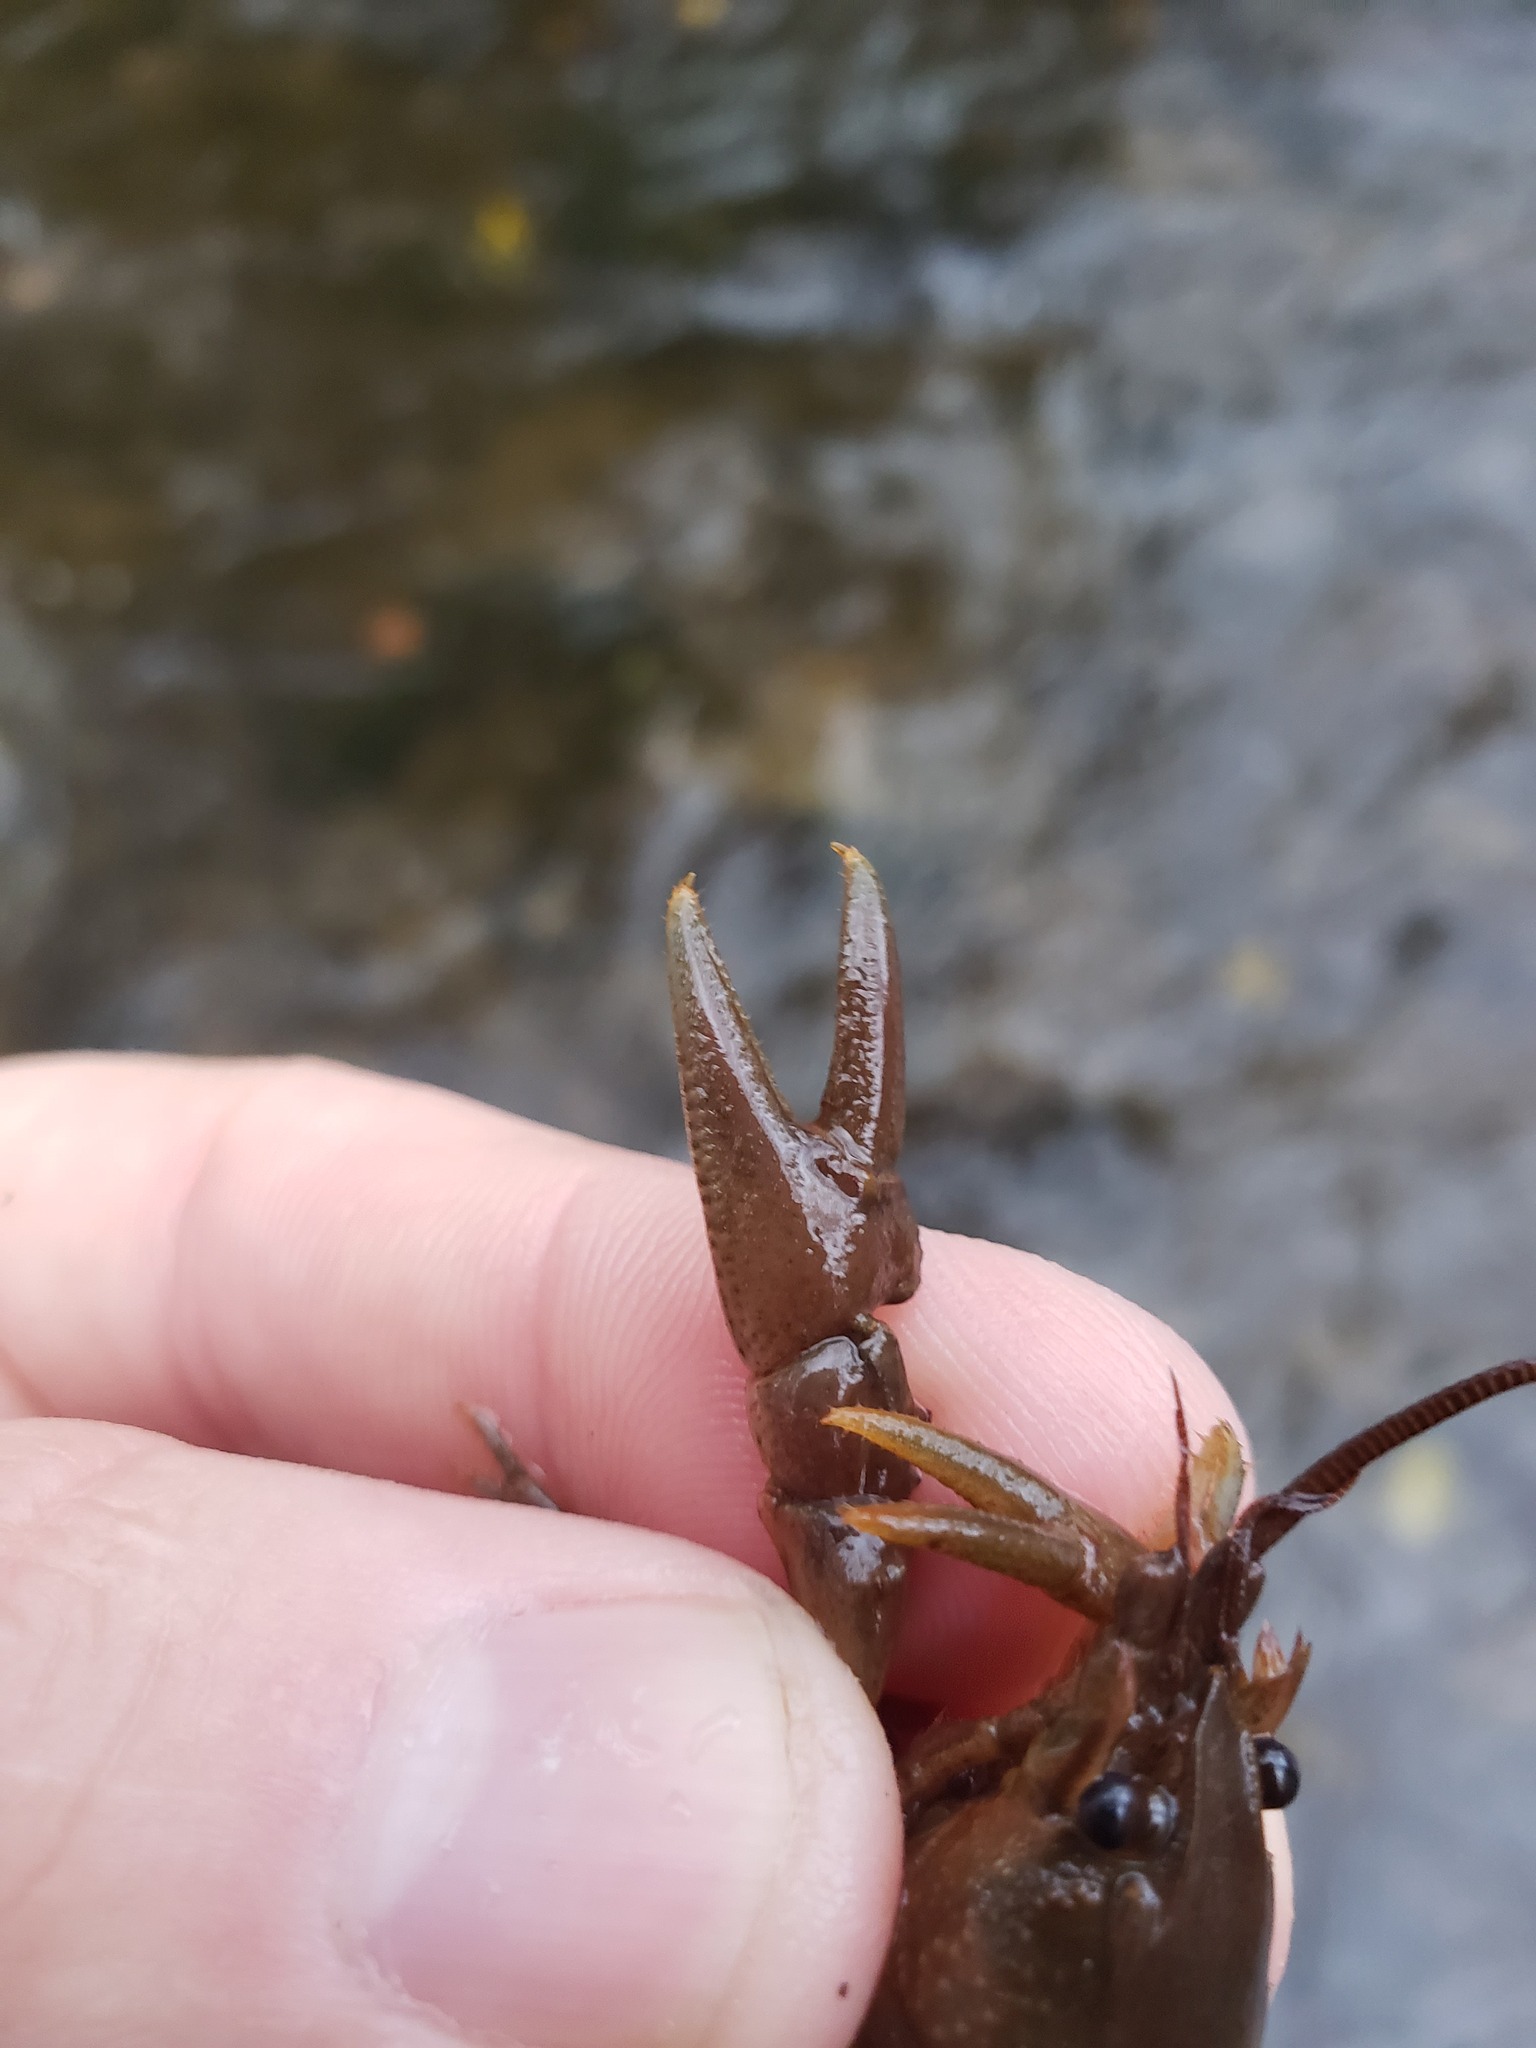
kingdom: Animalia
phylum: Arthropoda
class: Malacostraca
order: Decapoda
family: Cambaridae
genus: Cambarus
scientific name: Cambarus robustus
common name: Big water crayfish
